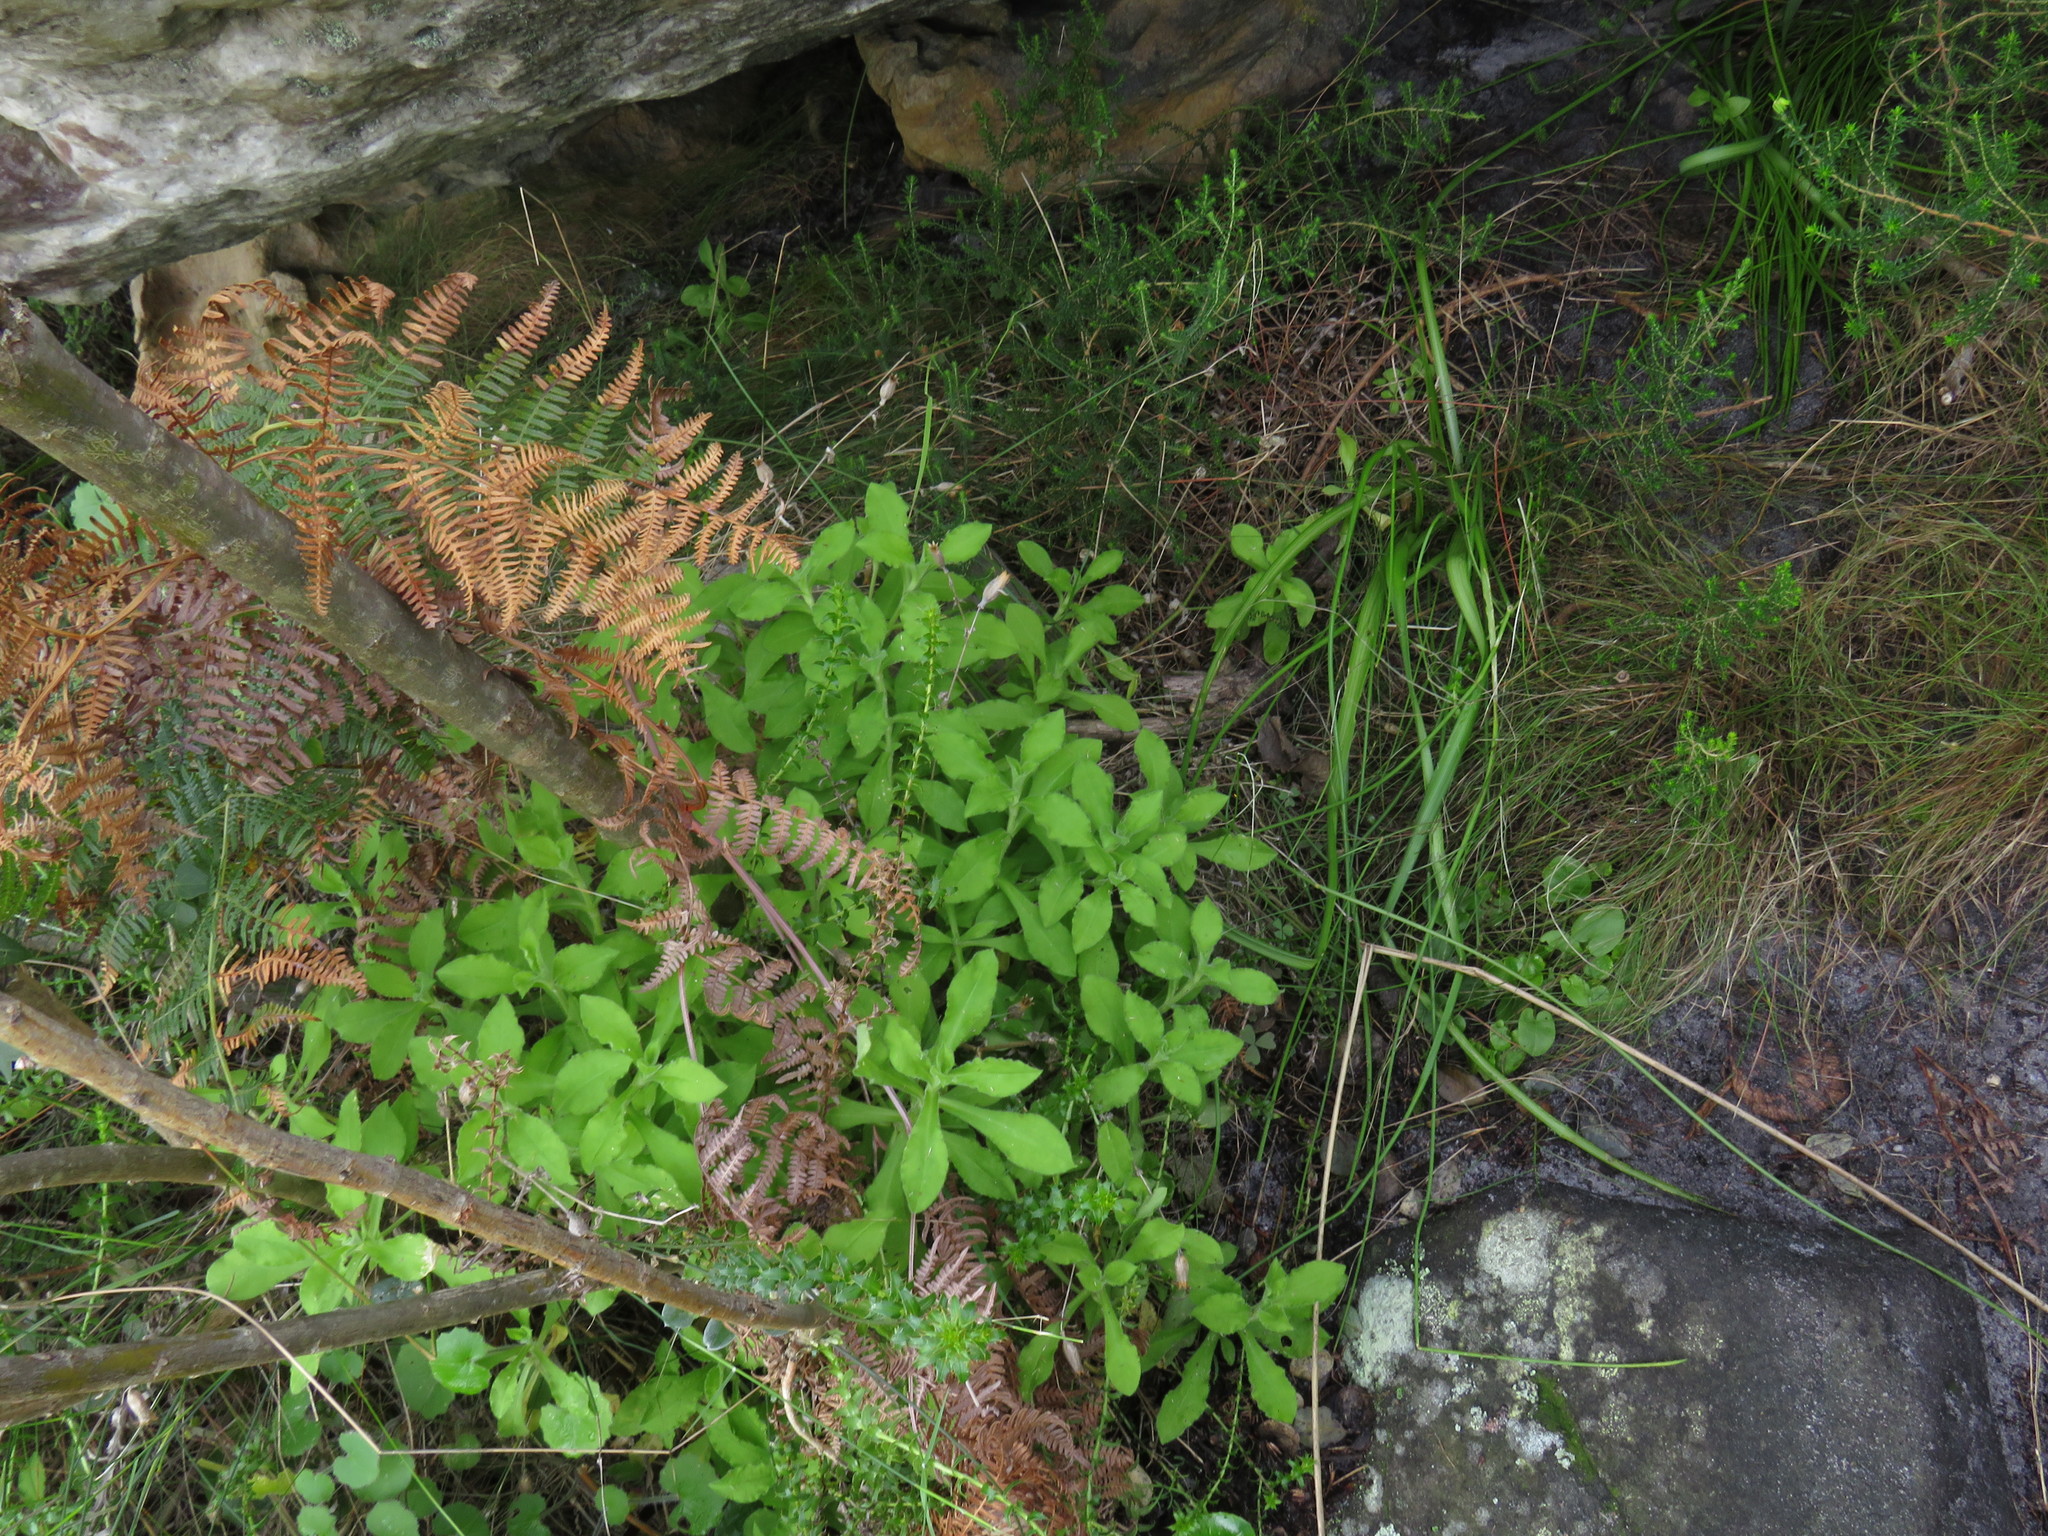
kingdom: Plantae
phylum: Tracheophyta
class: Magnoliopsida
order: Caryophyllales
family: Caryophyllaceae
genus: Silene
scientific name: Silene undulata
